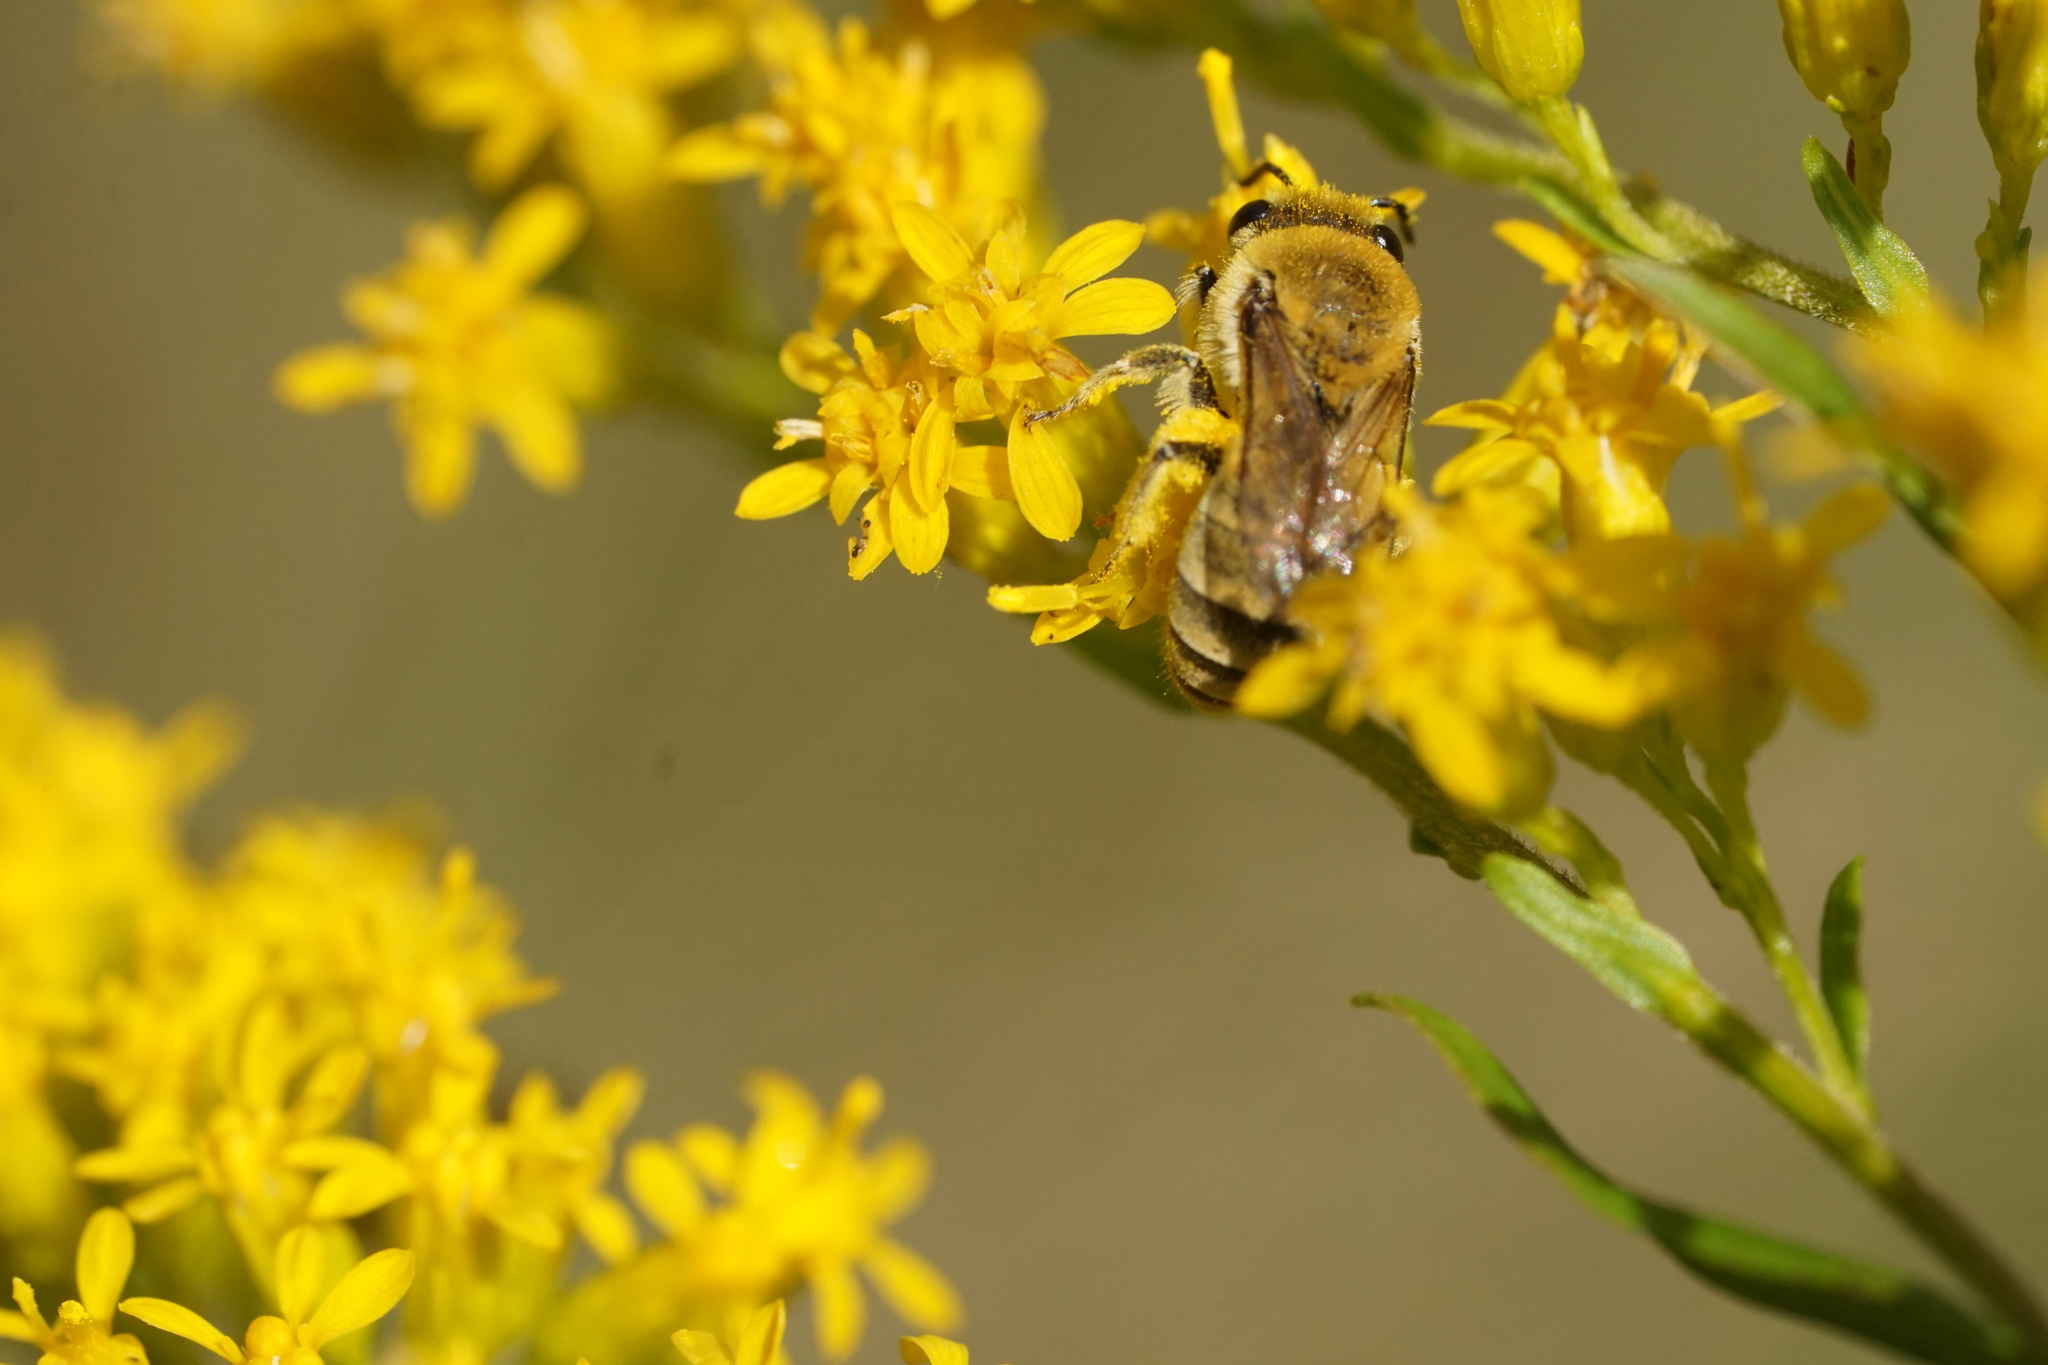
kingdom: Animalia
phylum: Arthropoda
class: Insecta
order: Hymenoptera
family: Colletidae
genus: Colletes
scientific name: Colletes solidaginis
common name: Goldenrod cellophane bee
